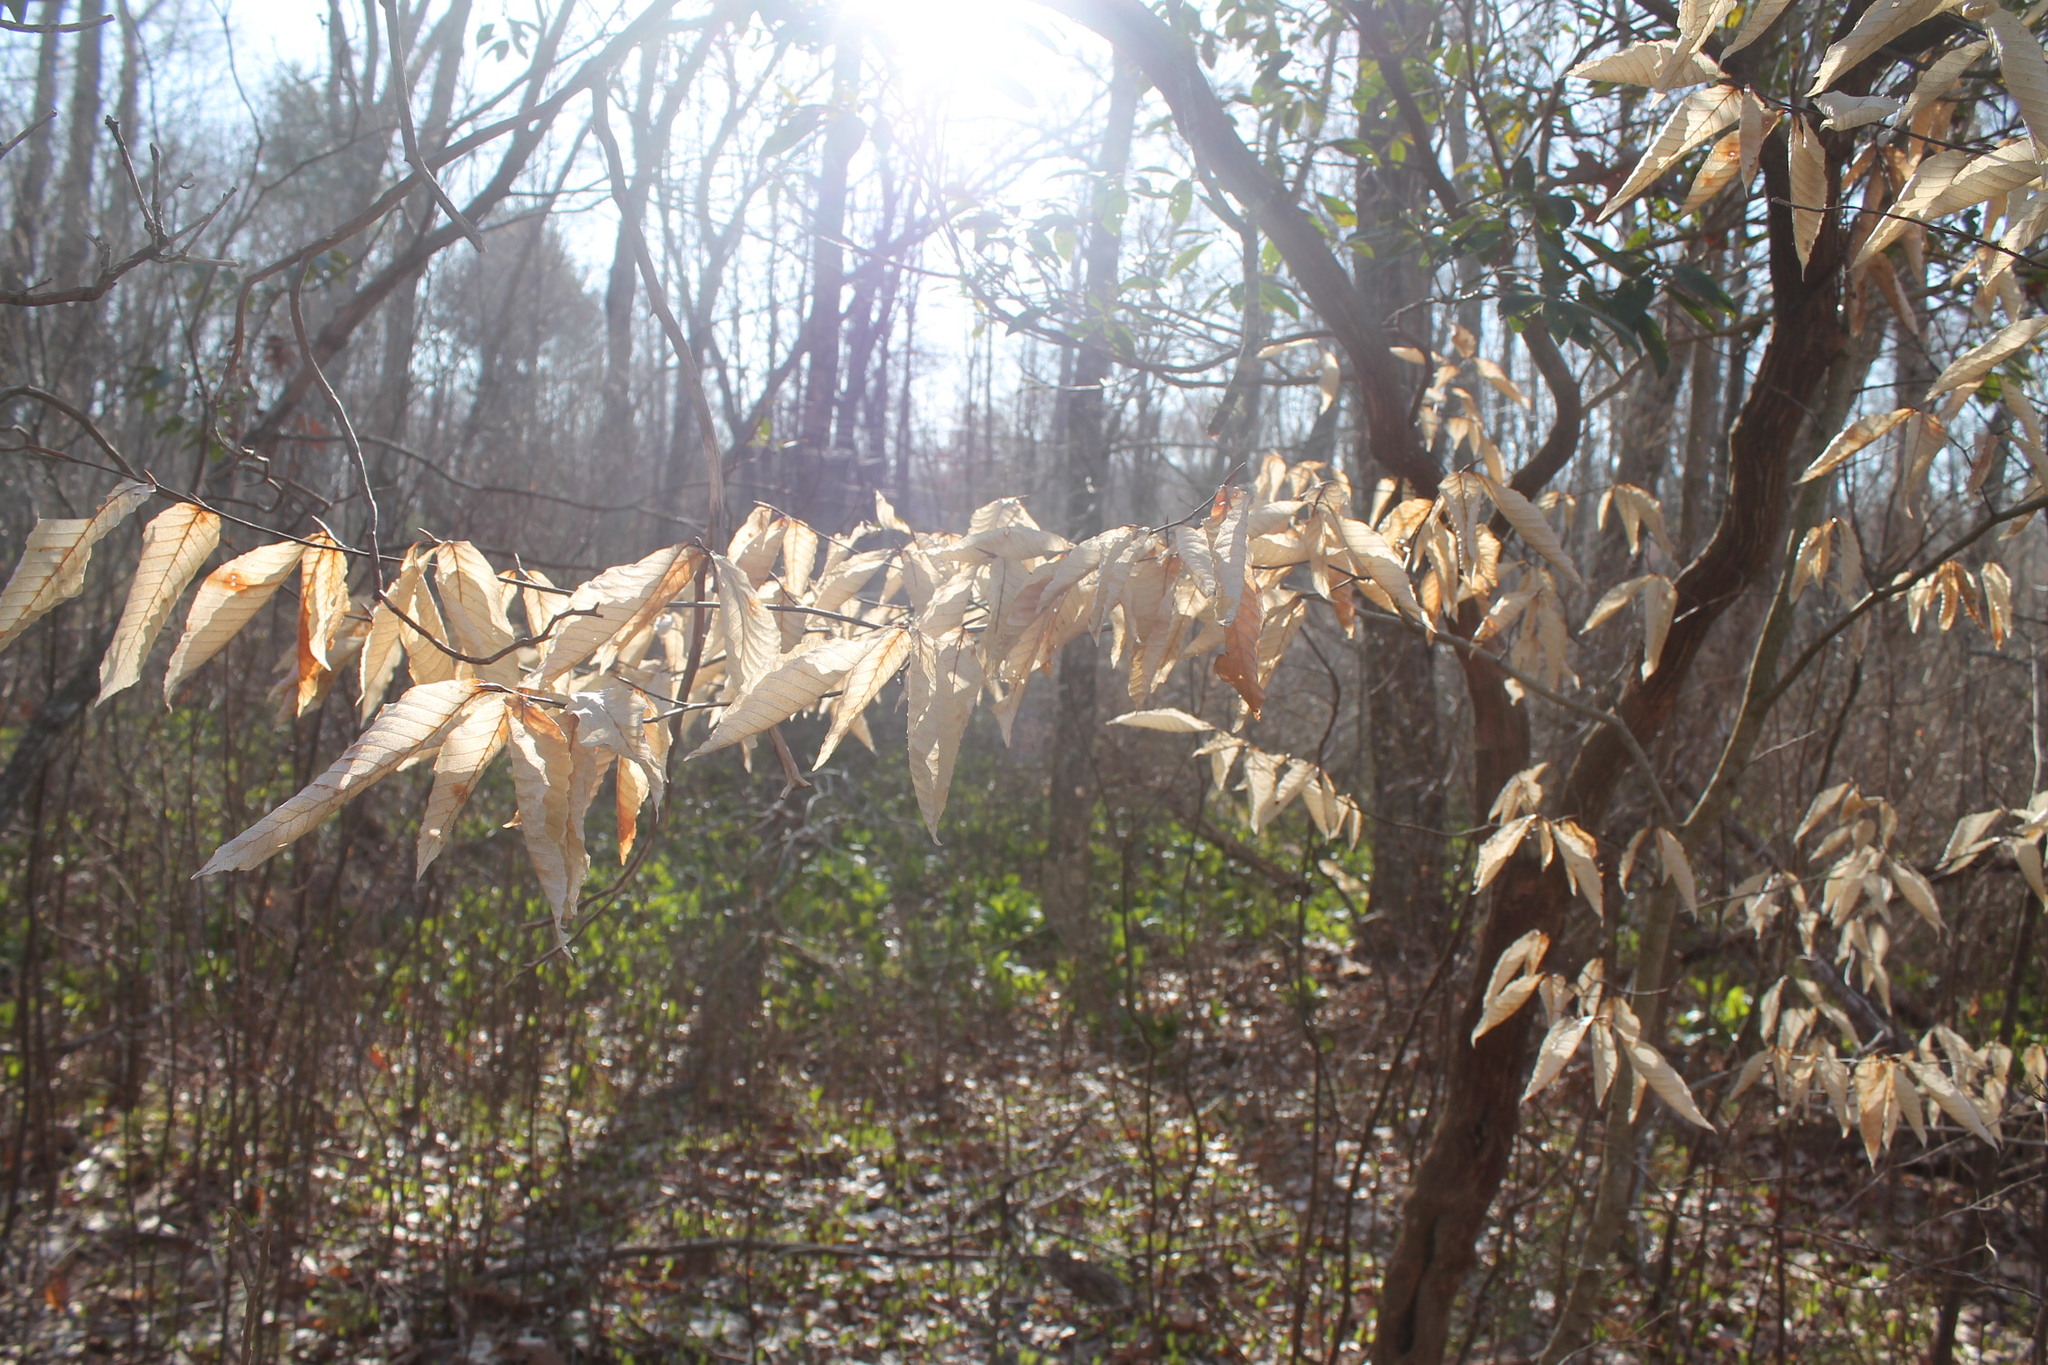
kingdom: Plantae
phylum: Tracheophyta
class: Magnoliopsida
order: Fagales
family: Fagaceae
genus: Fagus
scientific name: Fagus grandifolia
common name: American beech
